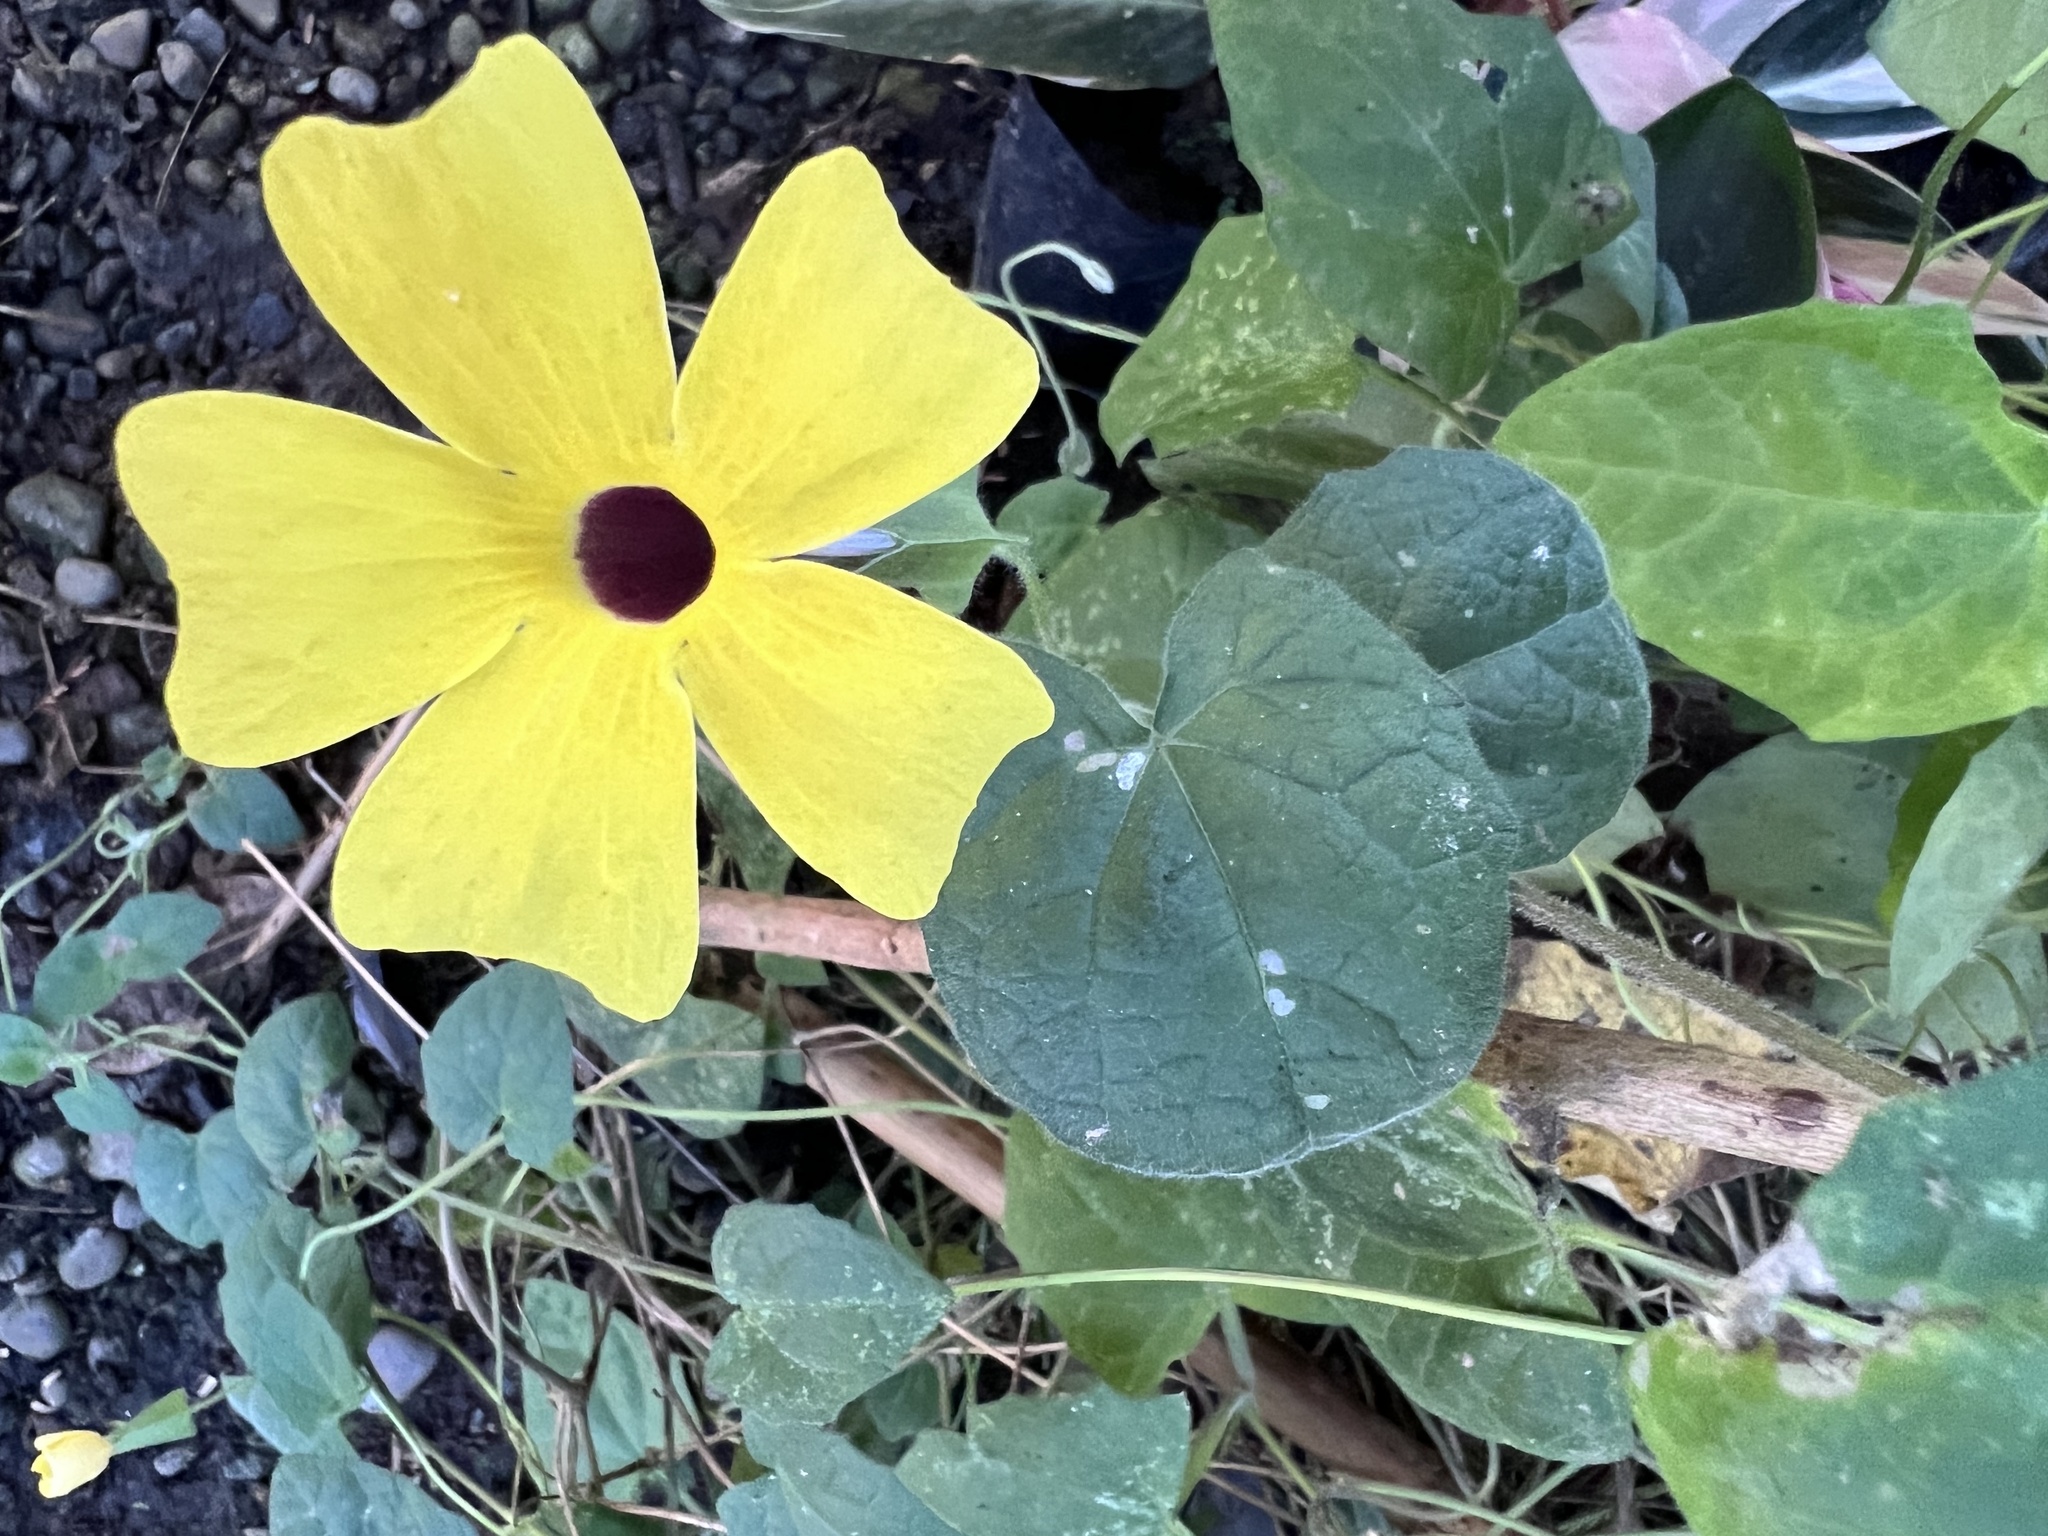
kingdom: Plantae
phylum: Tracheophyta
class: Magnoliopsida
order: Lamiales
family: Acanthaceae
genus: Thunbergia
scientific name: Thunbergia alata
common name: Blackeyed susan vine
